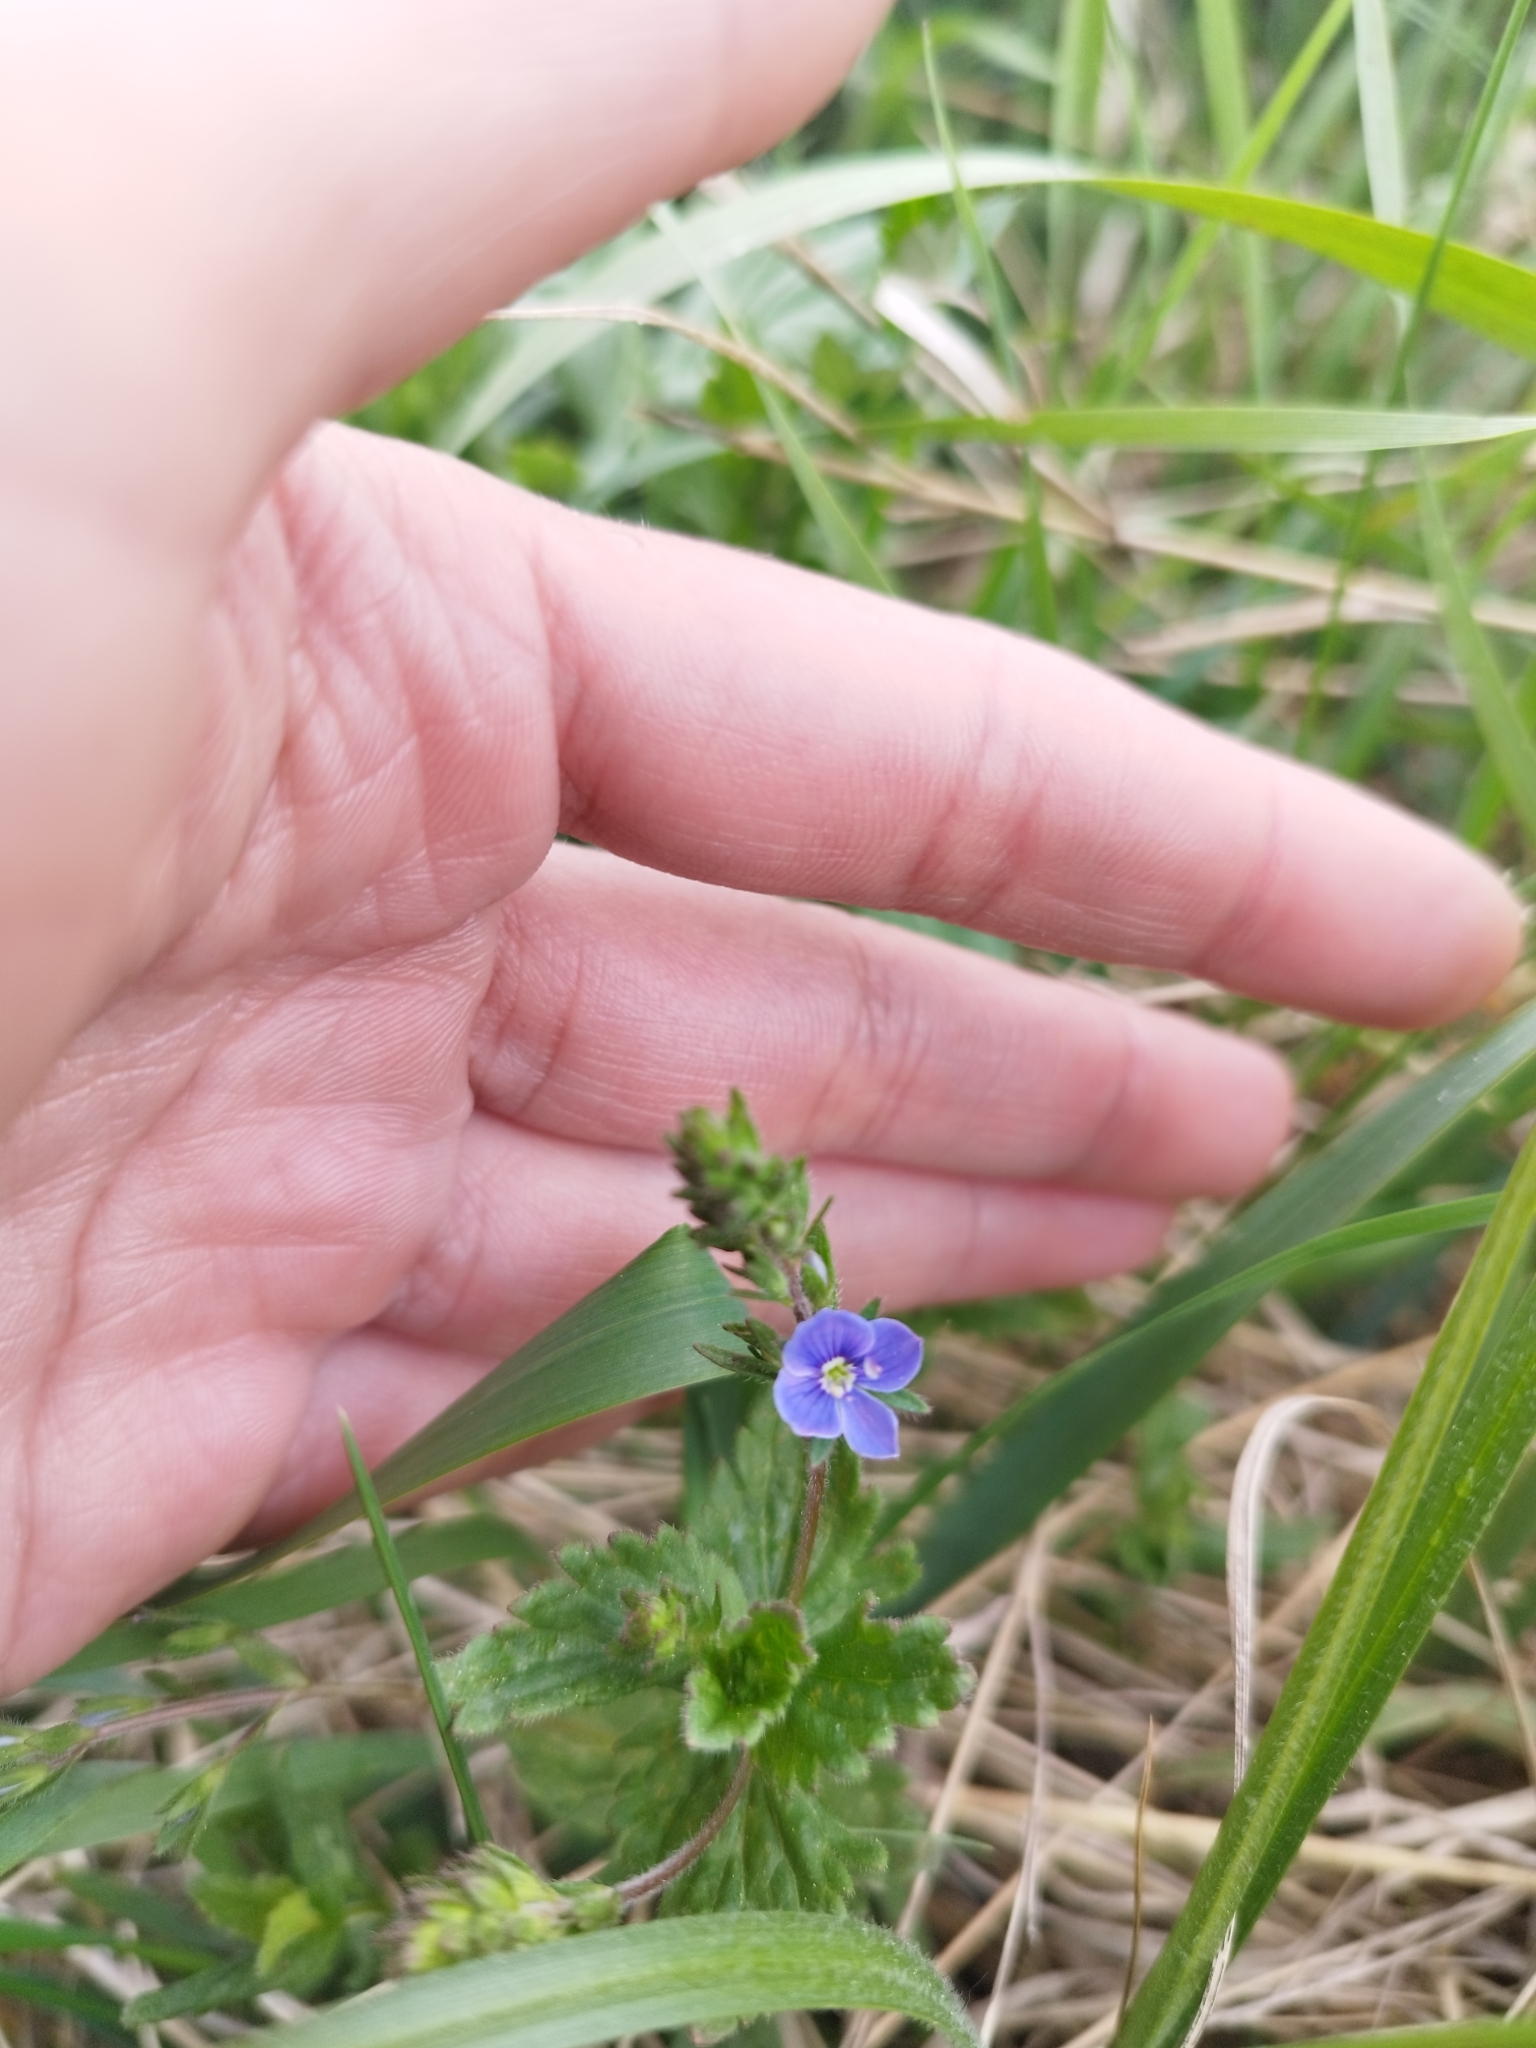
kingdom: Plantae
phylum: Tracheophyta
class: Magnoliopsida
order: Lamiales
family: Plantaginaceae
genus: Veronica
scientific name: Veronica chamaedrys
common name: Germander speedwell
